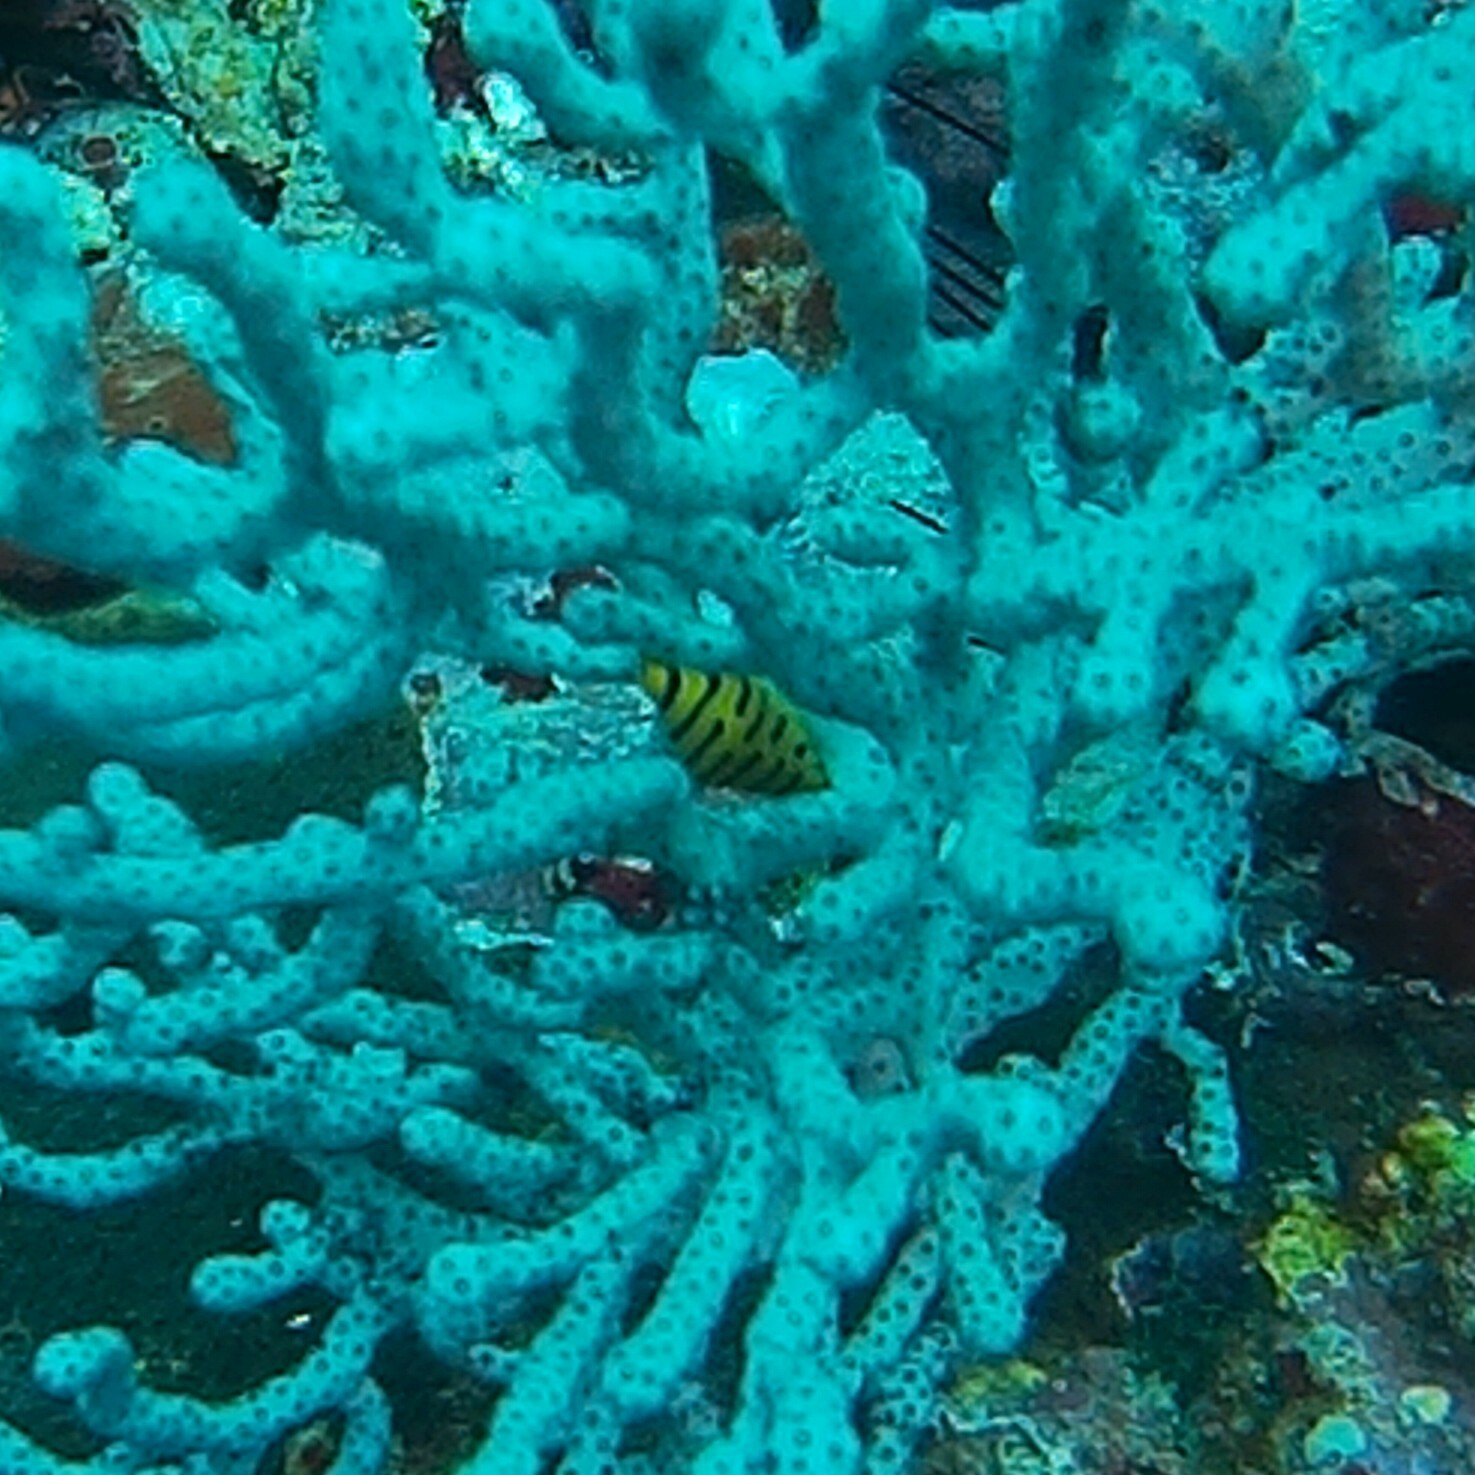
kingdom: Animalia
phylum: Mollusca
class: Gastropoda
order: Littorinimorpha
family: Ovulidae
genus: Cuspivolva
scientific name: Cuspivolva tigris
